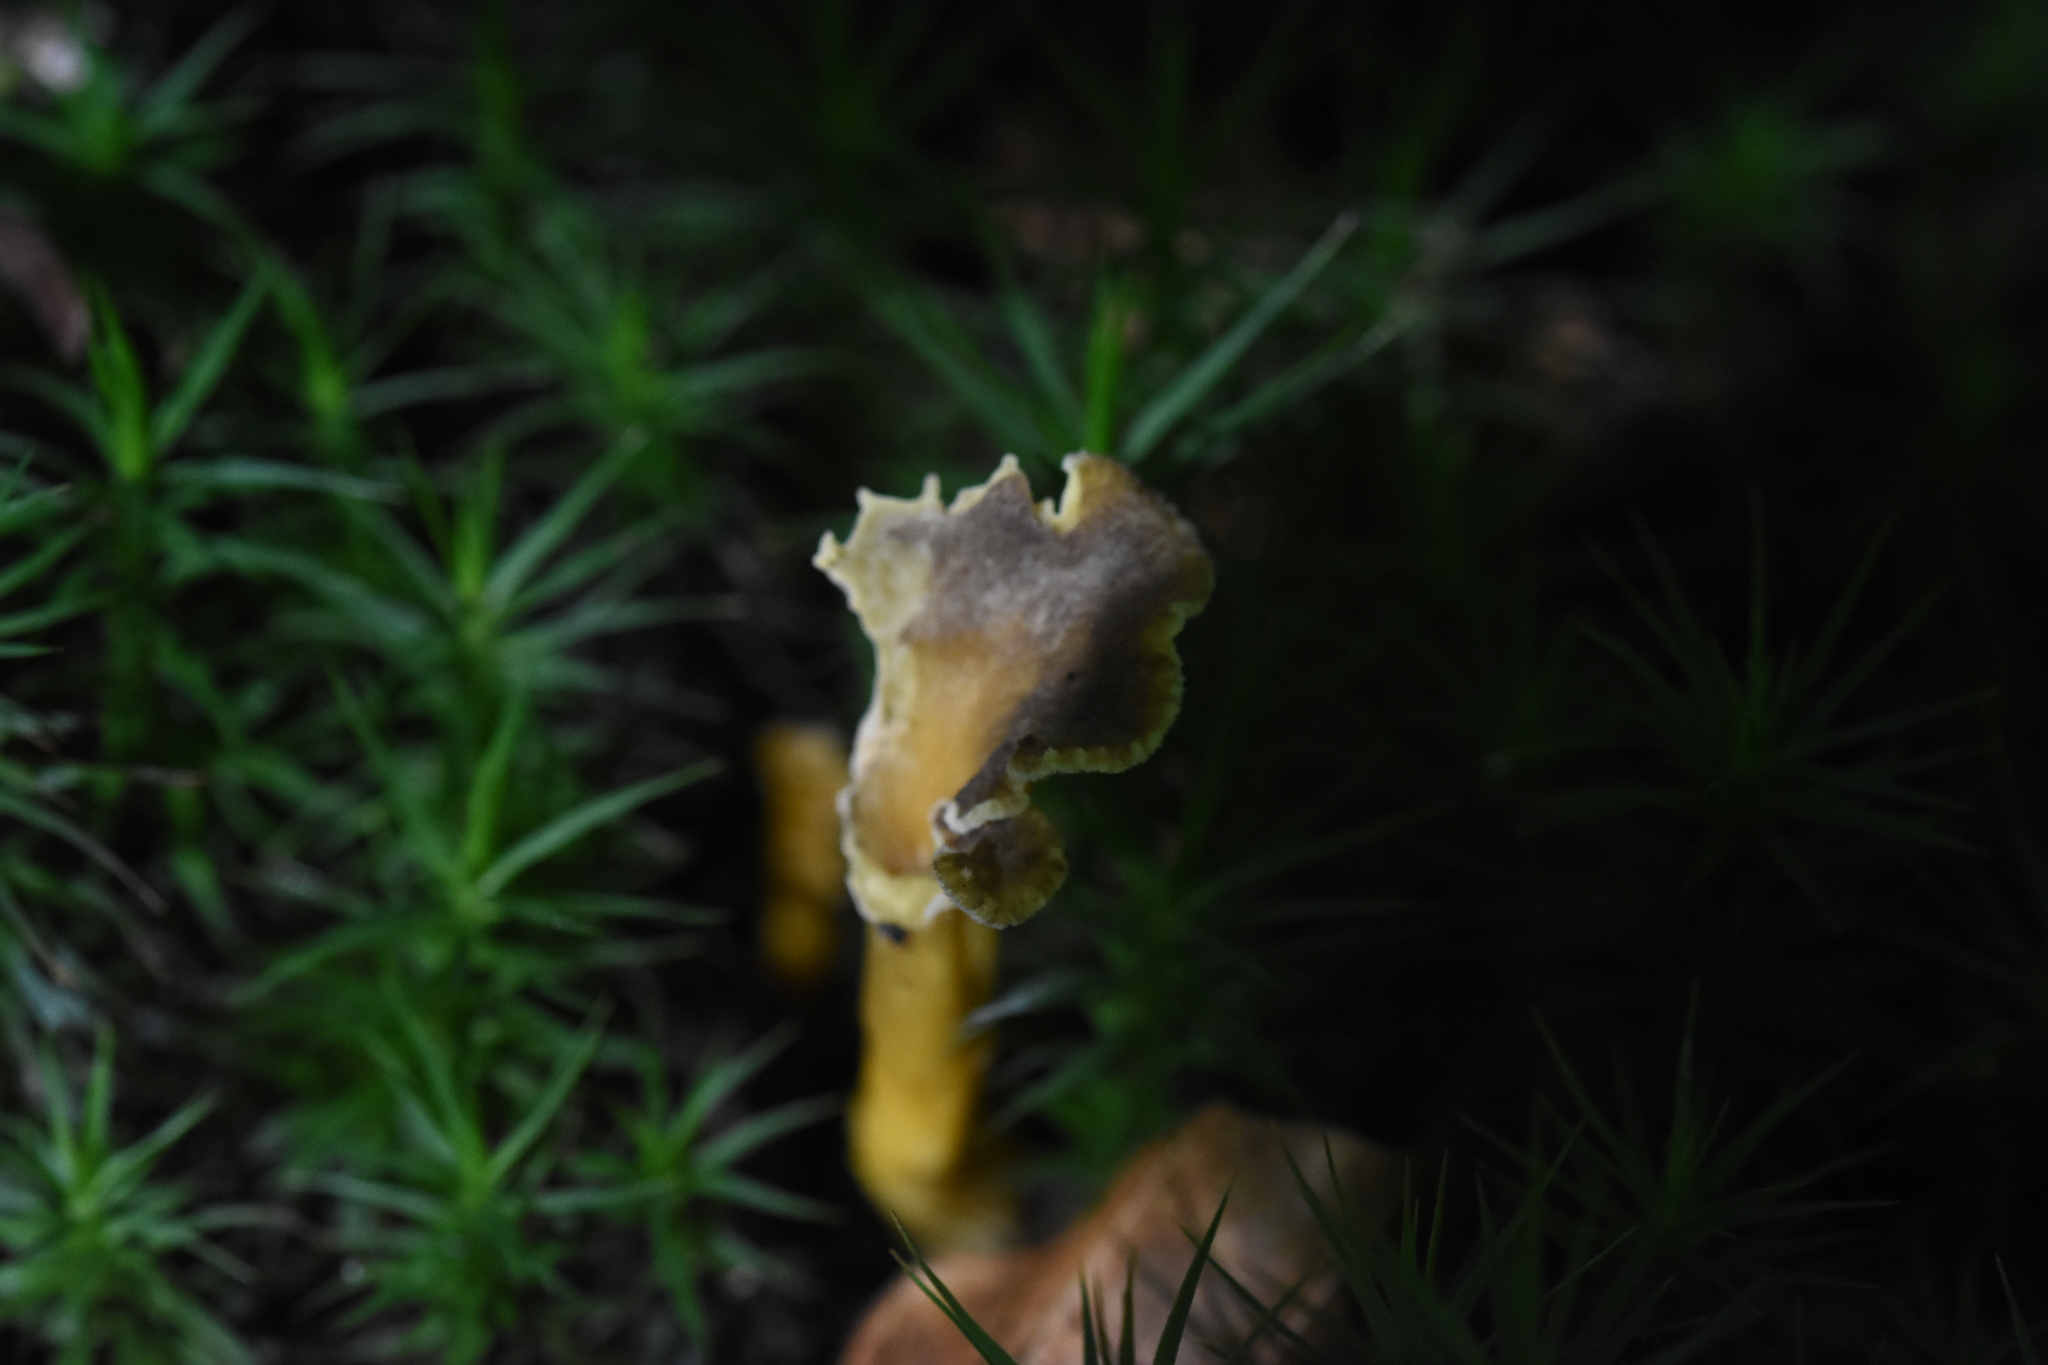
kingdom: Fungi
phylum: Basidiomycota
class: Agaricomycetes
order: Cantharellales
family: Hydnaceae
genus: Craterellus
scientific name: Craterellus tubaeformis
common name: Yellowfoot
